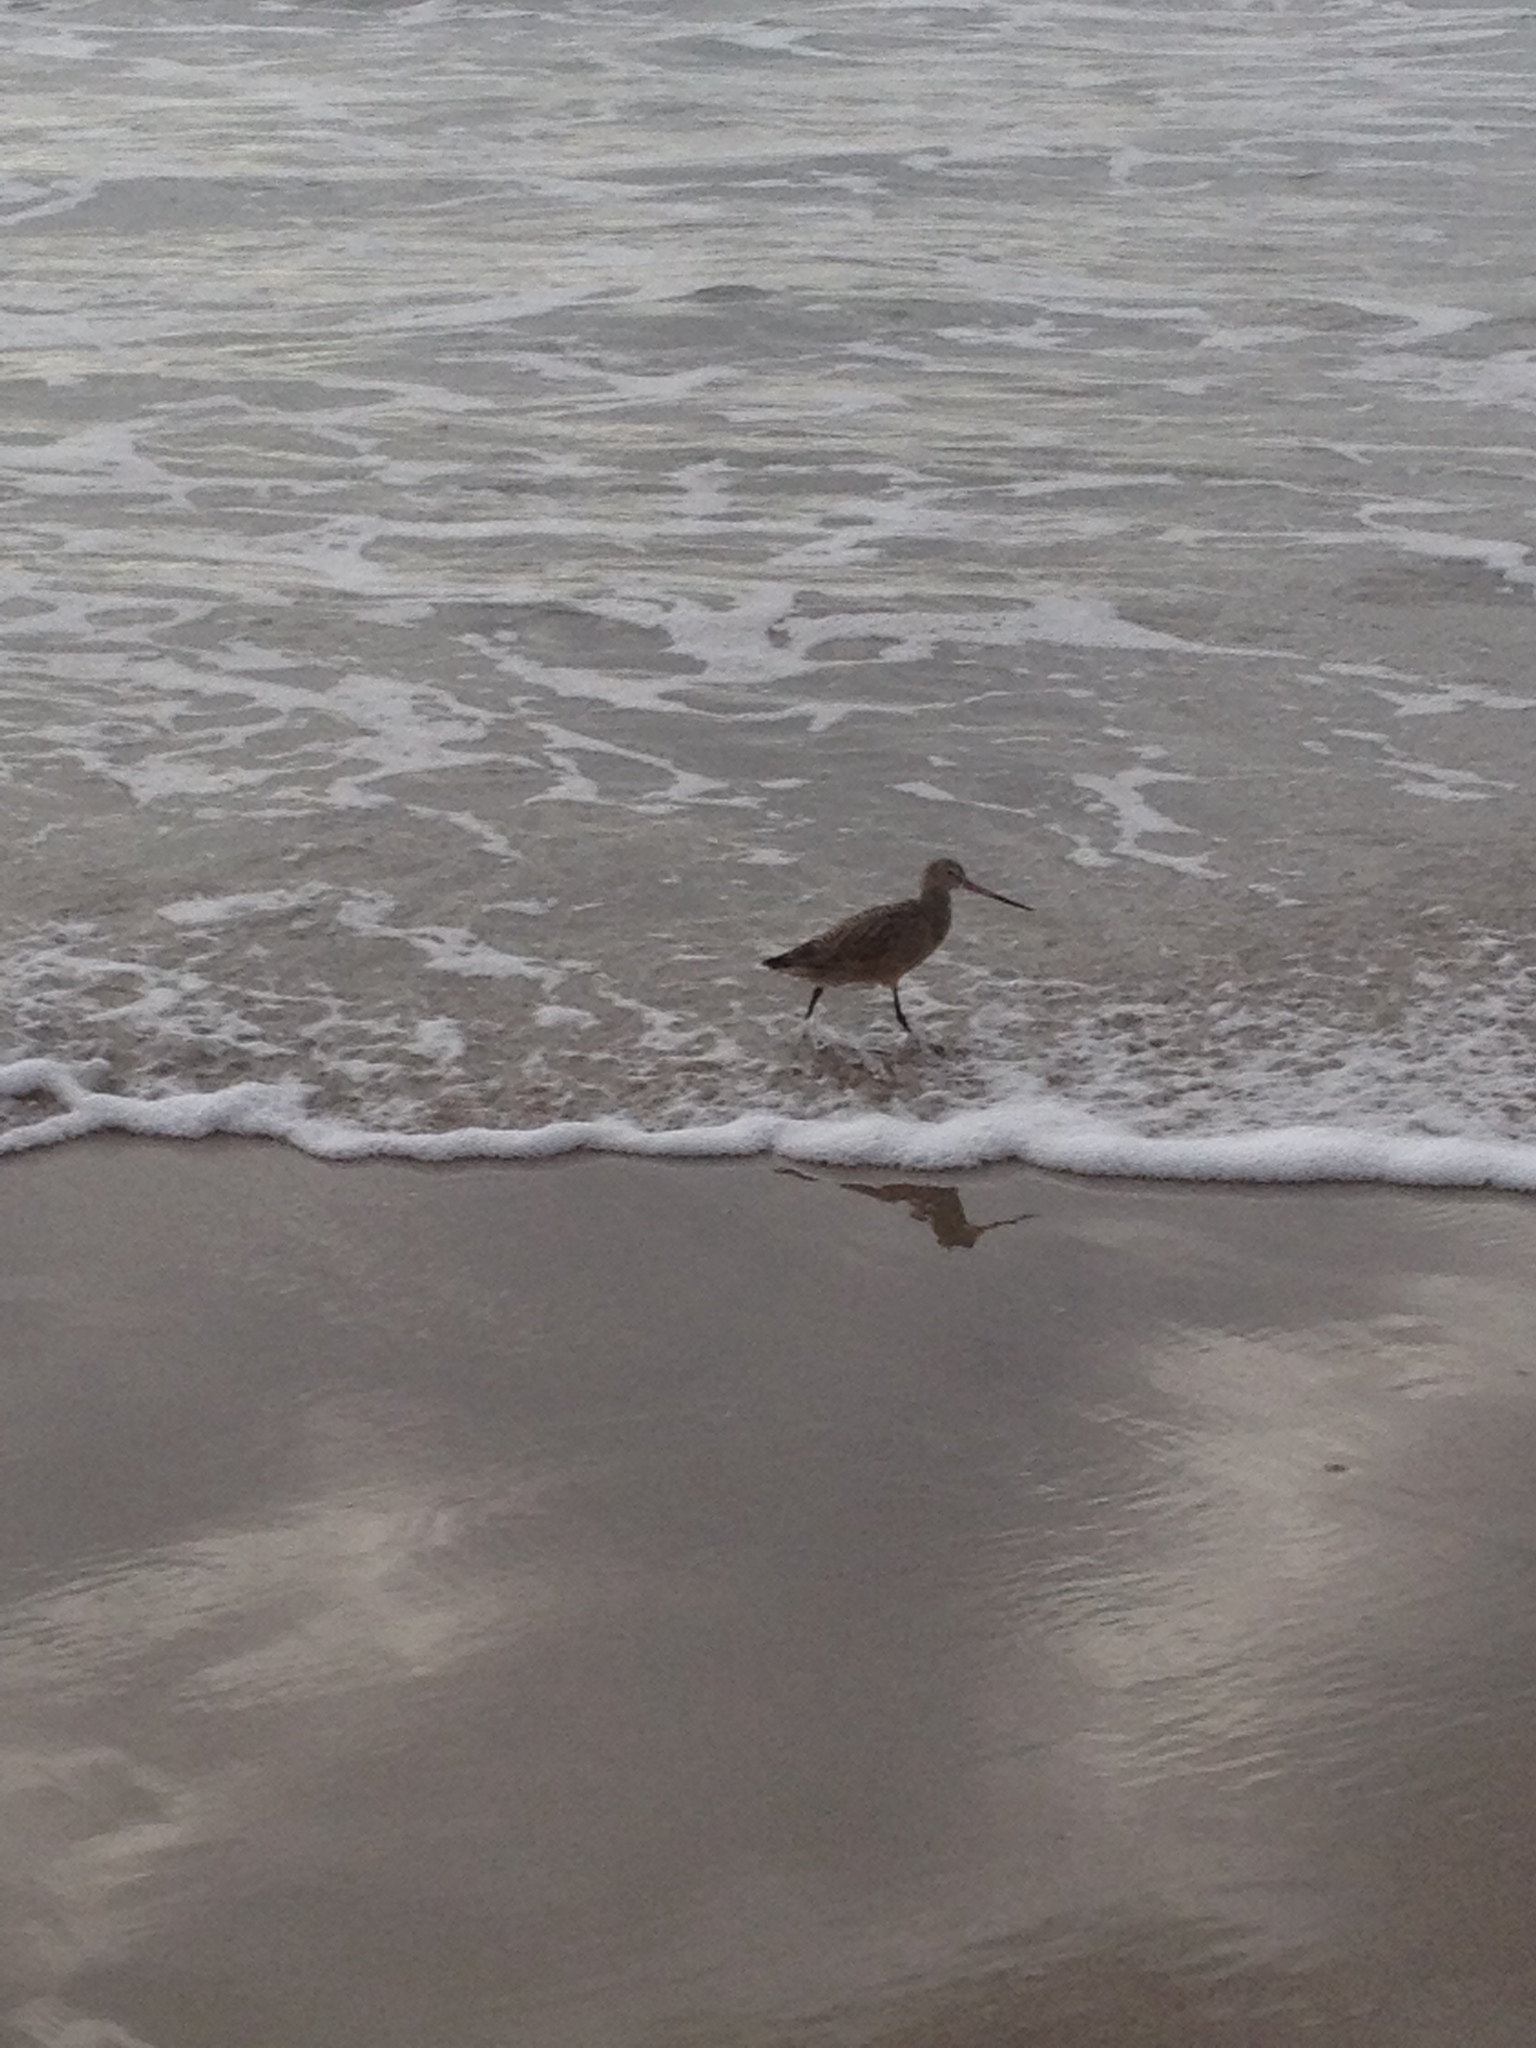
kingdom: Animalia
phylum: Chordata
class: Aves
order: Charadriiformes
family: Scolopacidae
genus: Limosa
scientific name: Limosa fedoa
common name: Marbled godwit
